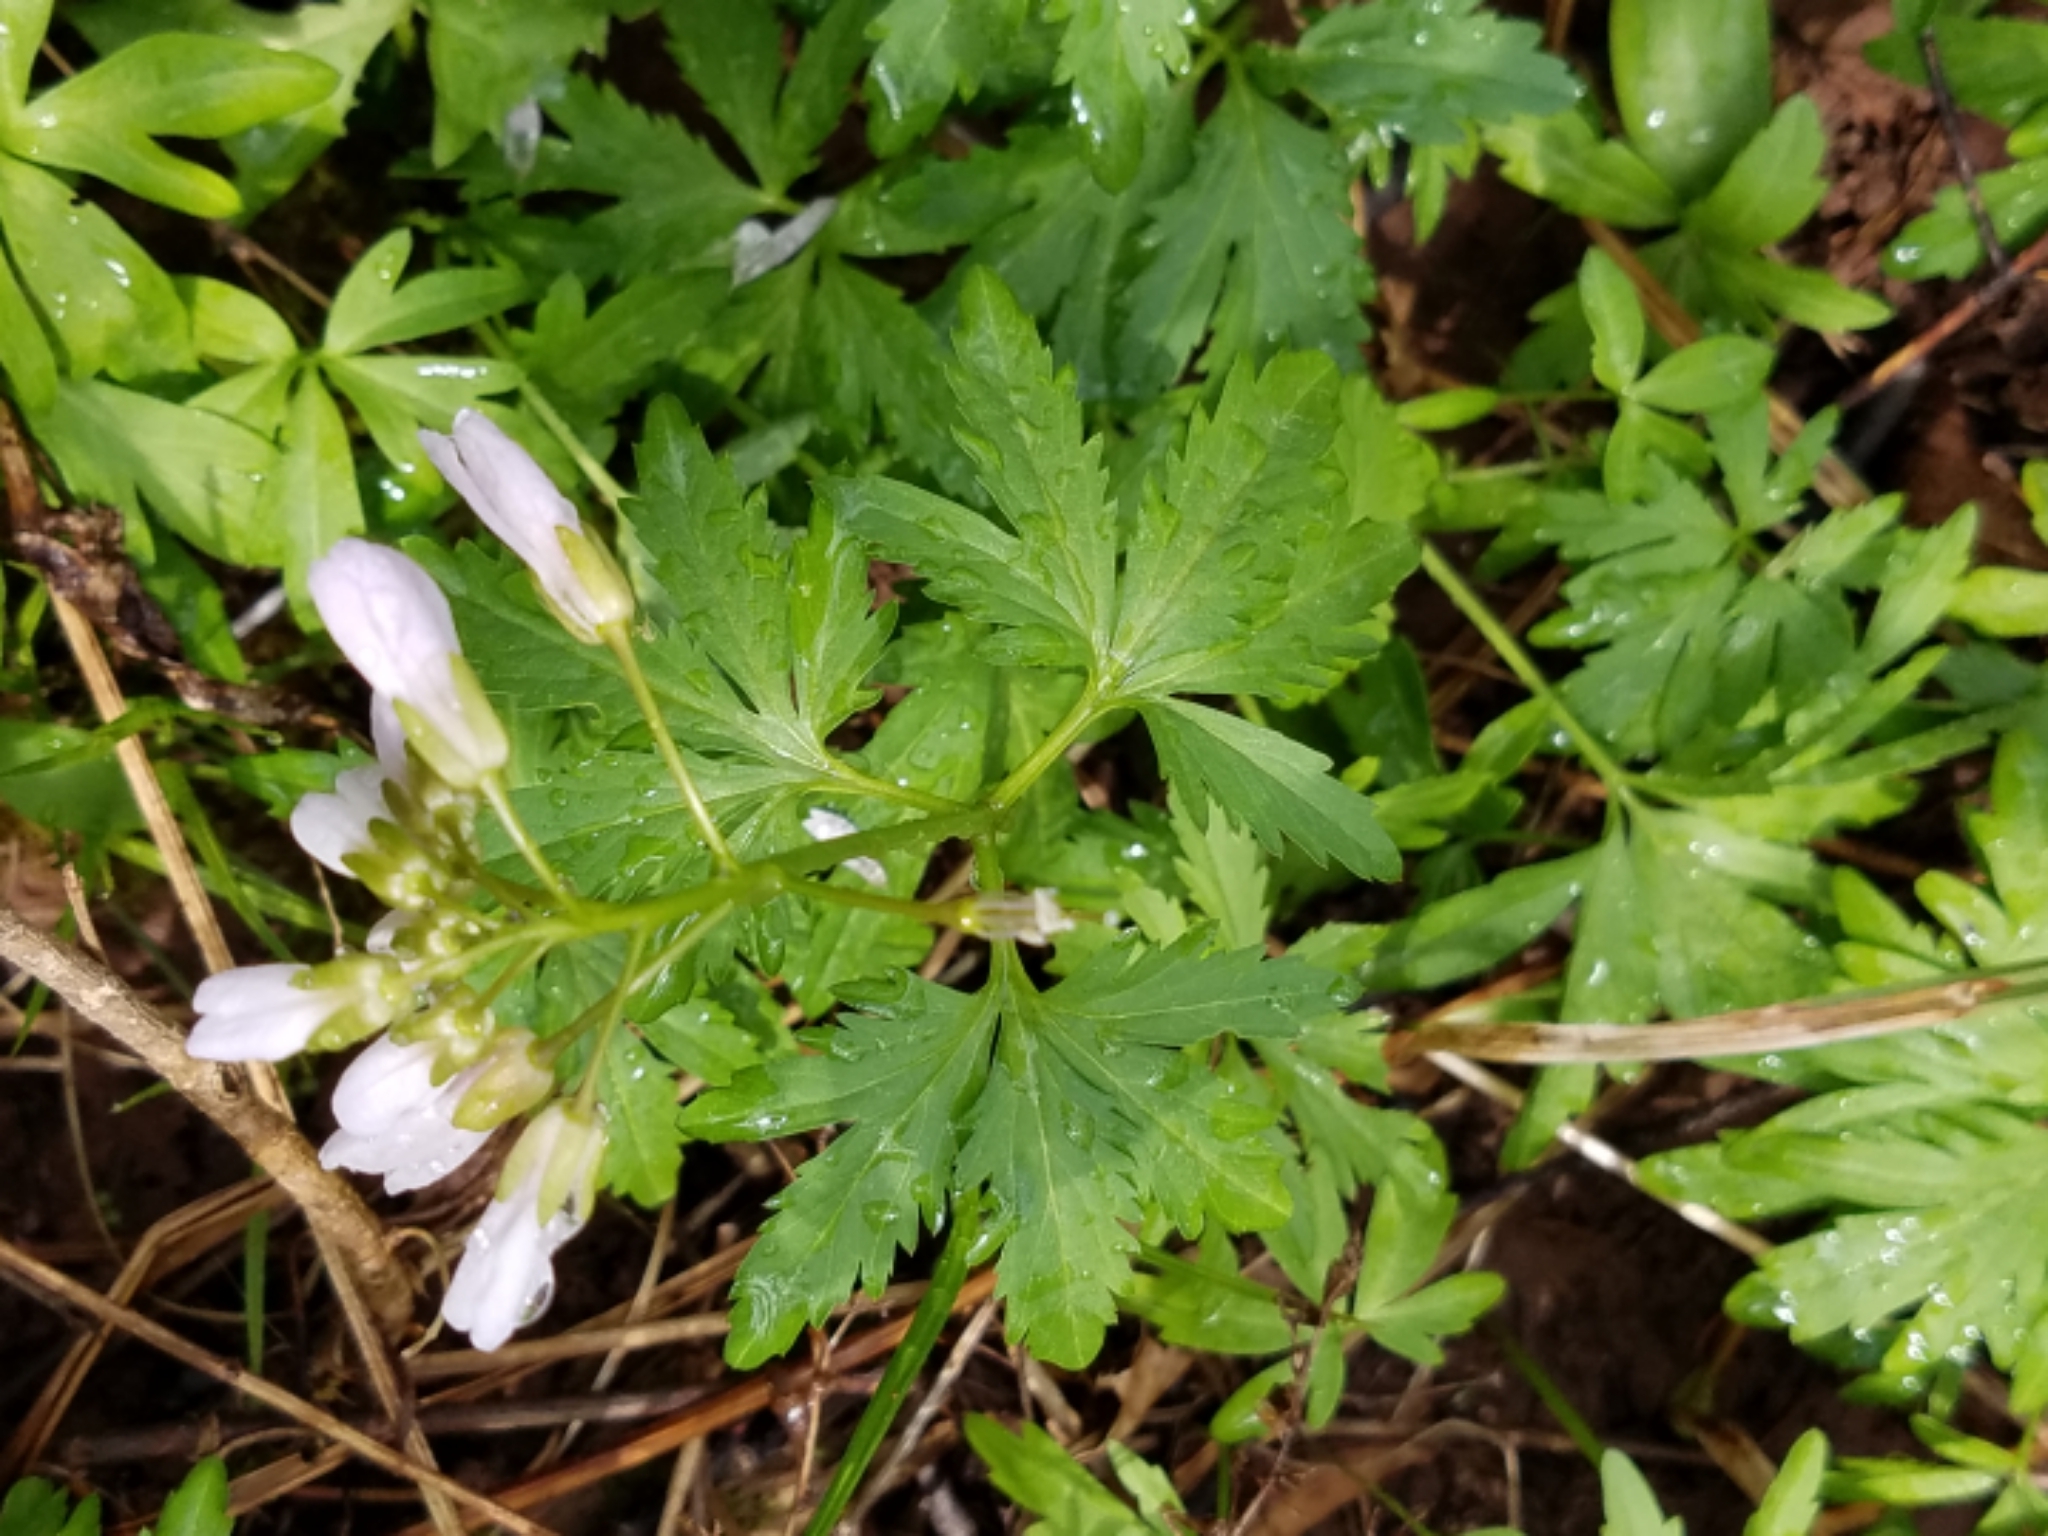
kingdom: Plantae
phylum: Tracheophyta
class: Magnoliopsida
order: Brassicales
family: Brassicaceae
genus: Cardamine
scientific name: Cardamine concatenata
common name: Cut-leaf toothcup
